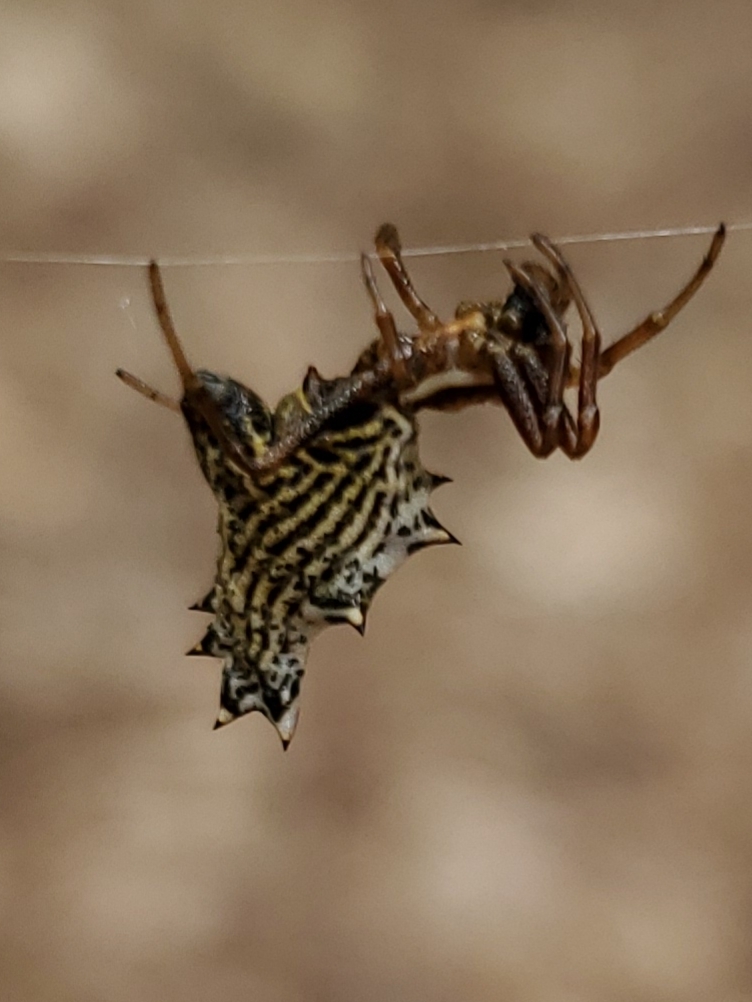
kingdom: Animalia
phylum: Arthropoda
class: Arachnida
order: Araneae
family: Araneidae
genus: Micrathena
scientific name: Micrathena gracilis
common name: Orb weavers
